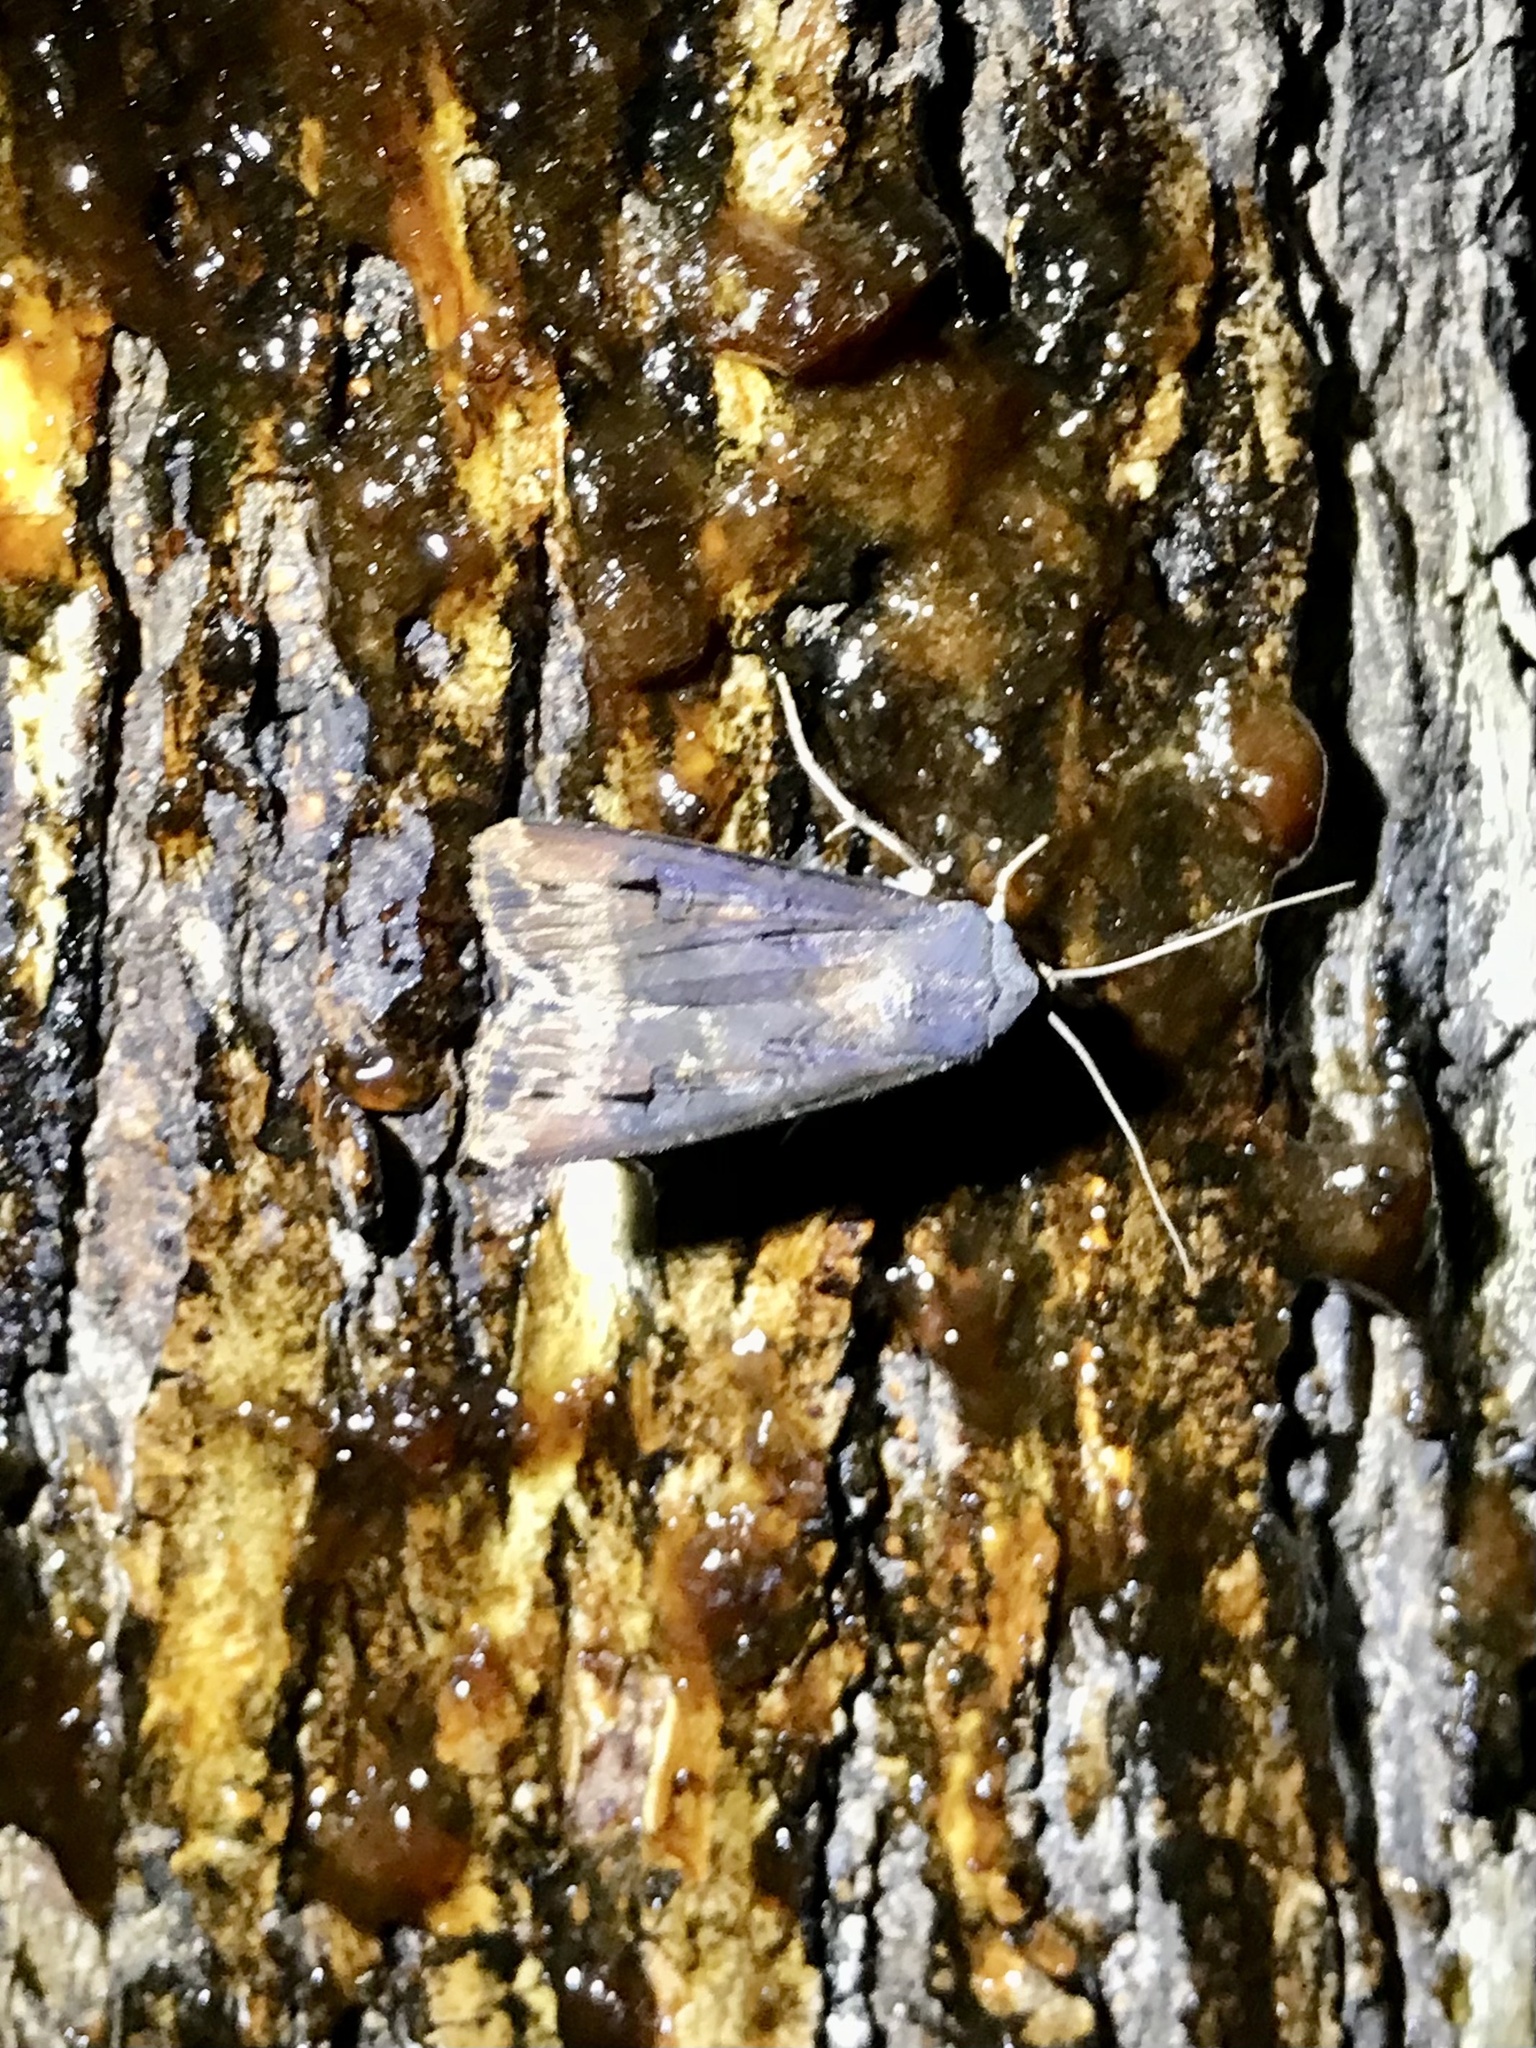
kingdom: Animalia
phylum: Arthropoda
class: Insecta
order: Lepidoptera
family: Noctuidae
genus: Agrotis
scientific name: Agrotis ipsilon
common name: Dark sword-grass
